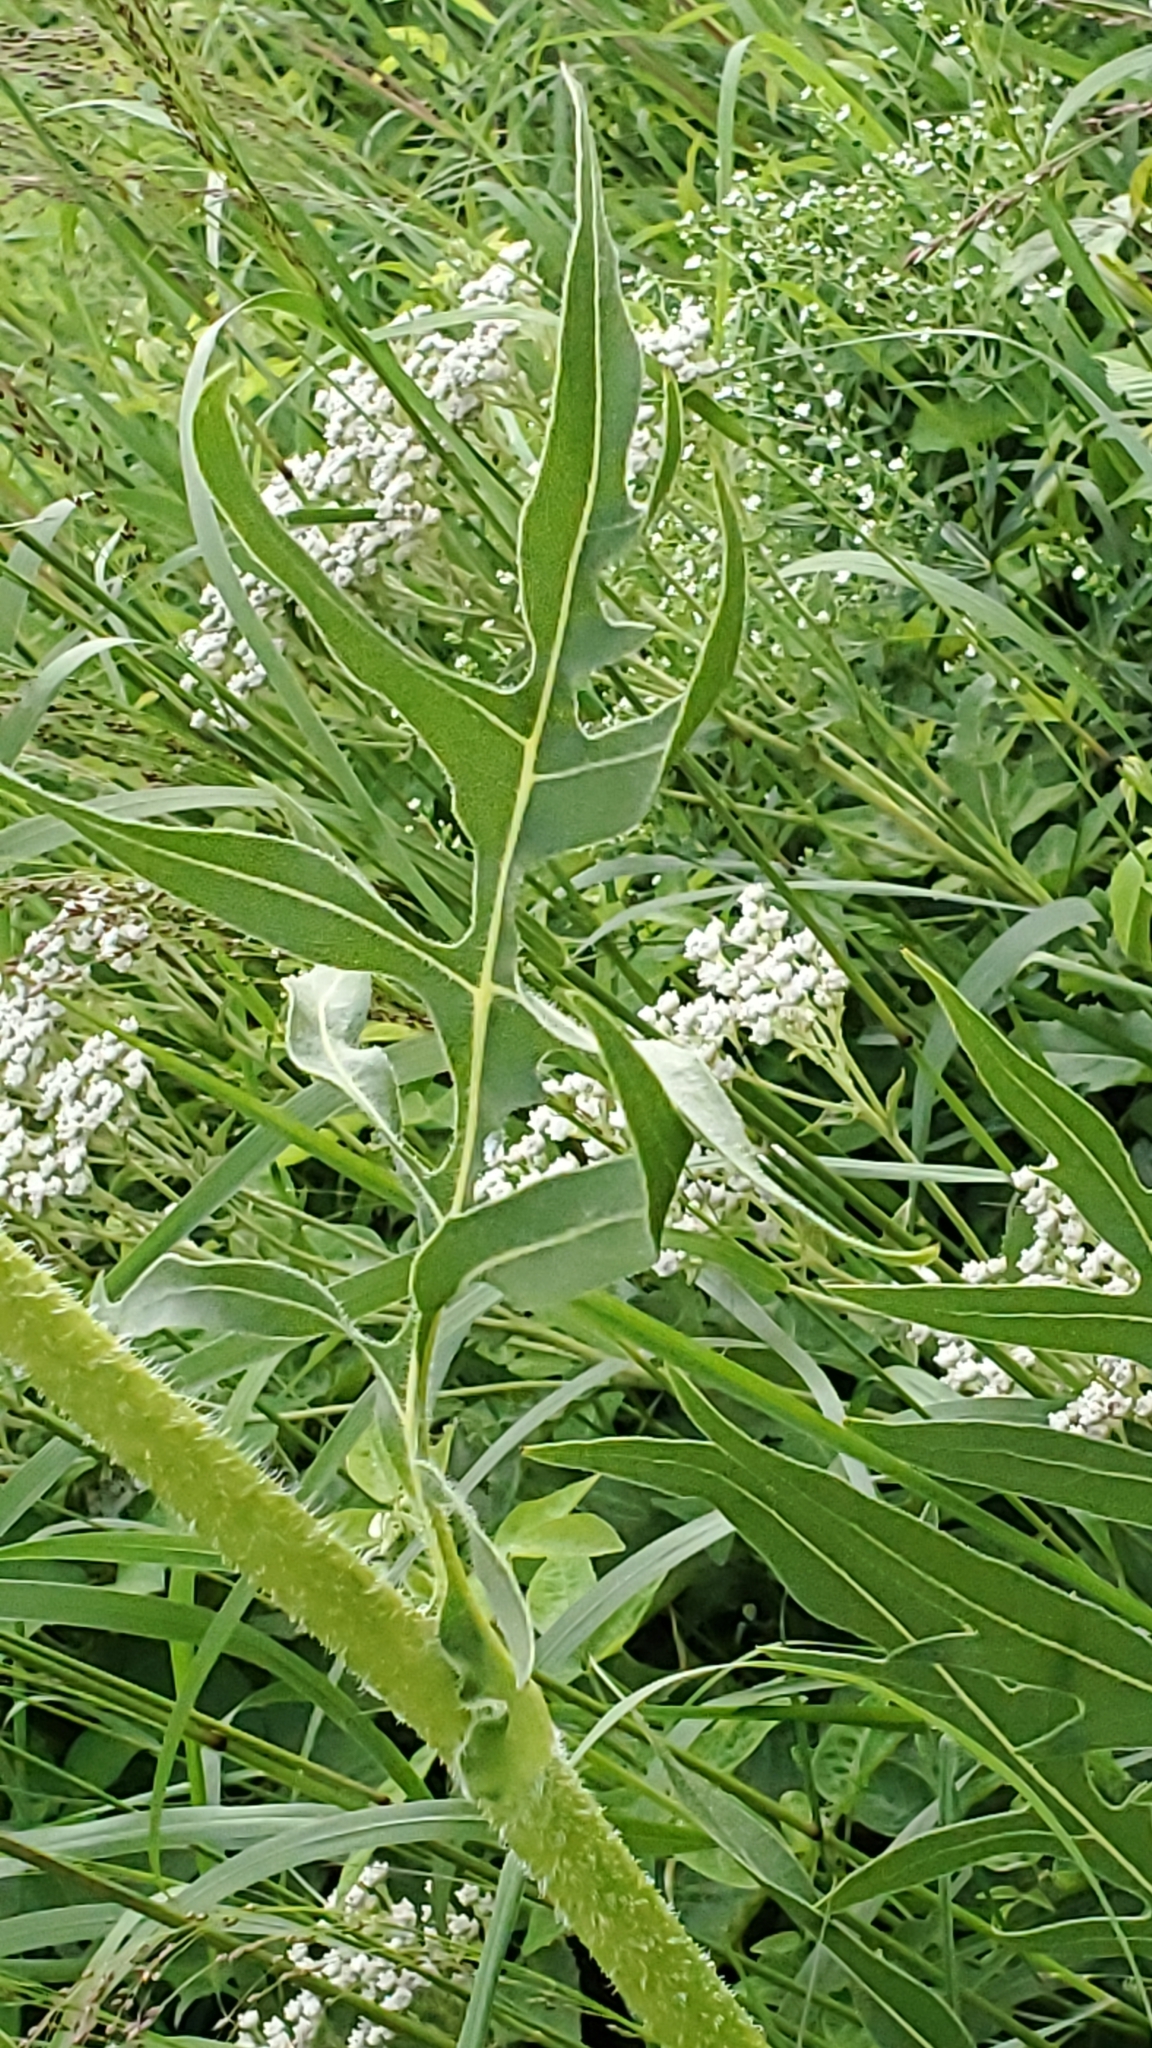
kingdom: Plantae
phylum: Tracheophyta
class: Magnoliopsida
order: Asterales
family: Asteraceae
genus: Silphium
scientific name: Silphium laciniatum
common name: Polarplant
